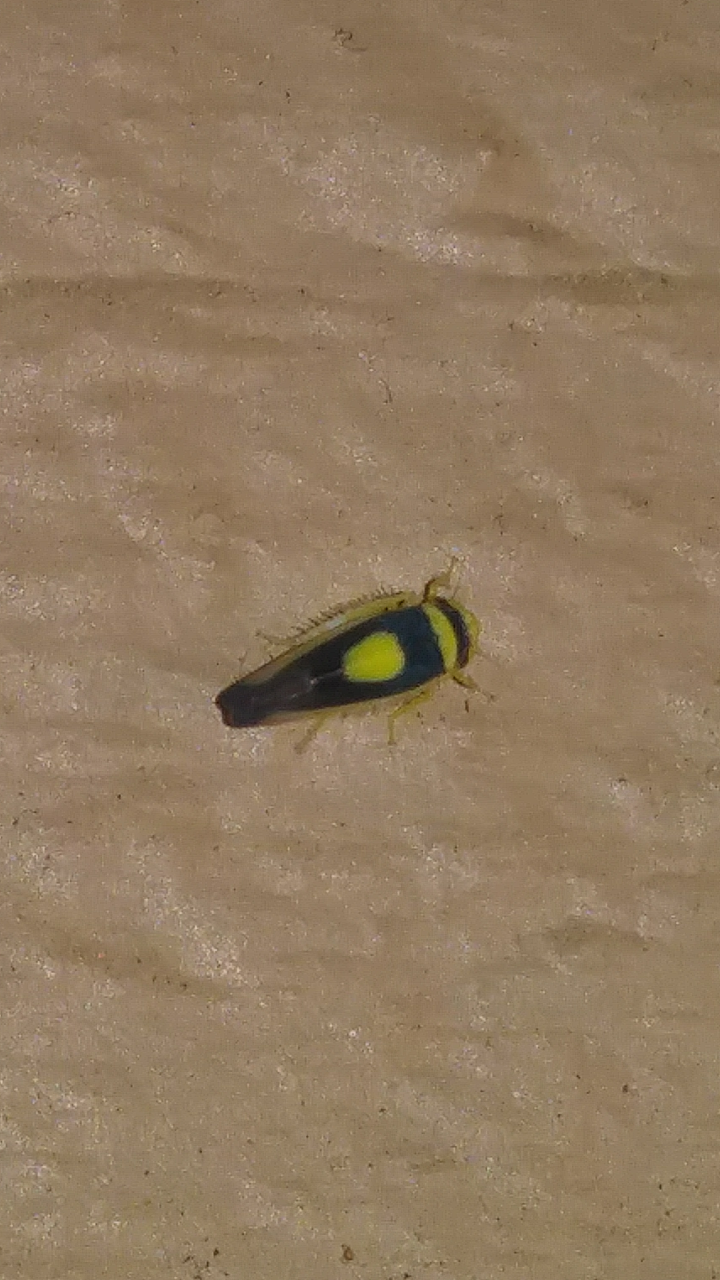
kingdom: Animalia
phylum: Arthropoda
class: Insecta
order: Hemiptera
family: Cicadellidae
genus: Colladonus
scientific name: Colladonus clitellarius
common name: The saddleback leafhopper
